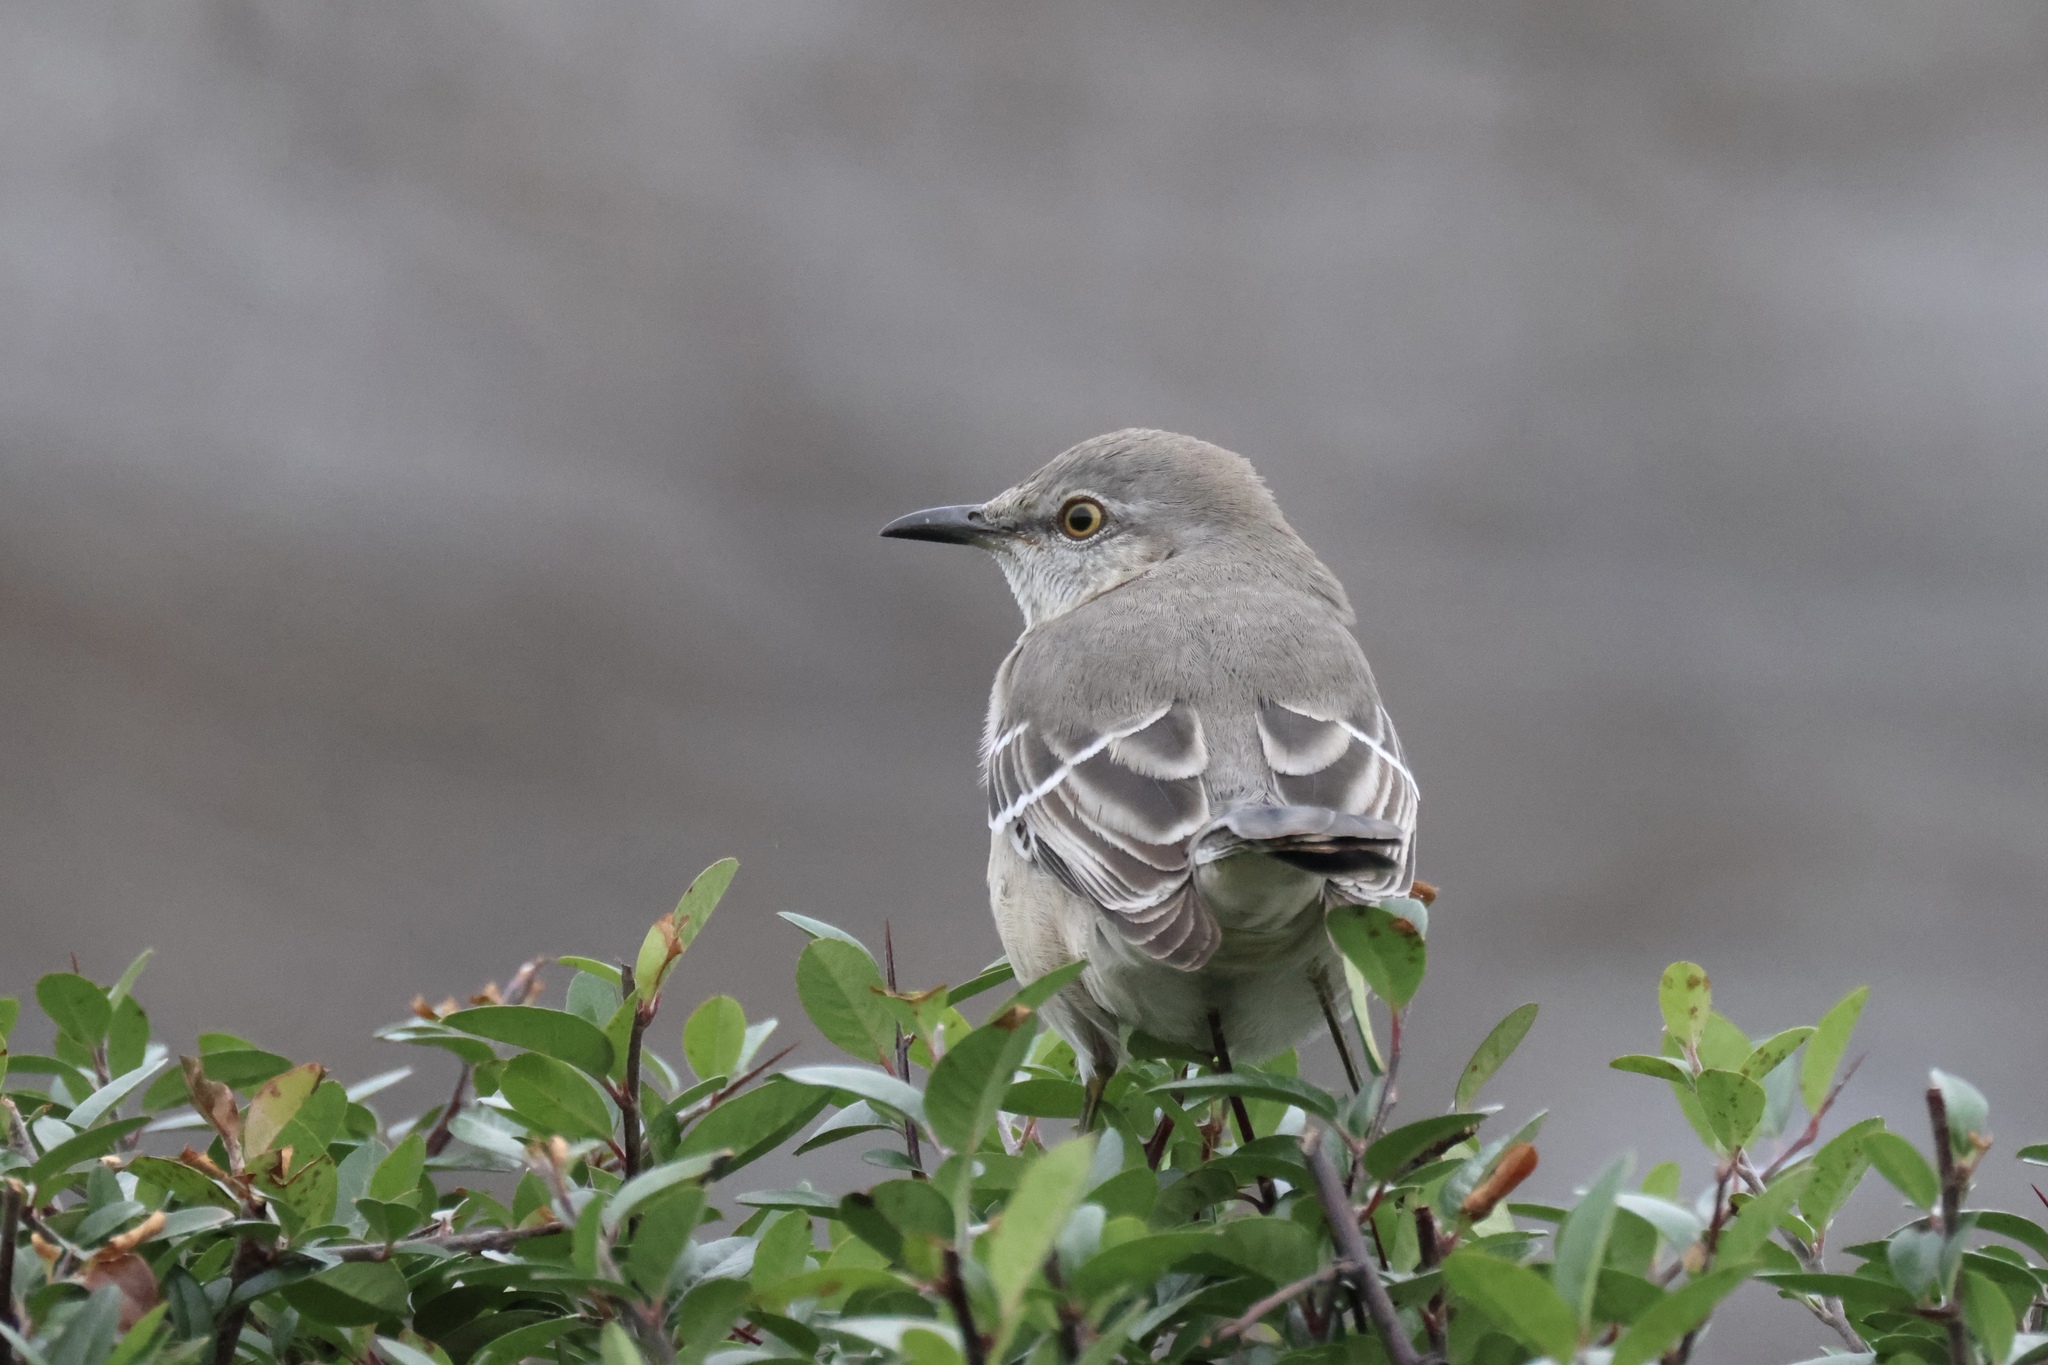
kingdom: Animalia
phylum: Chordata
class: Aves
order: Passeriformes
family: Mimidae
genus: Mimus
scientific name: Mimus polyglottos
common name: Northern mockingbird
